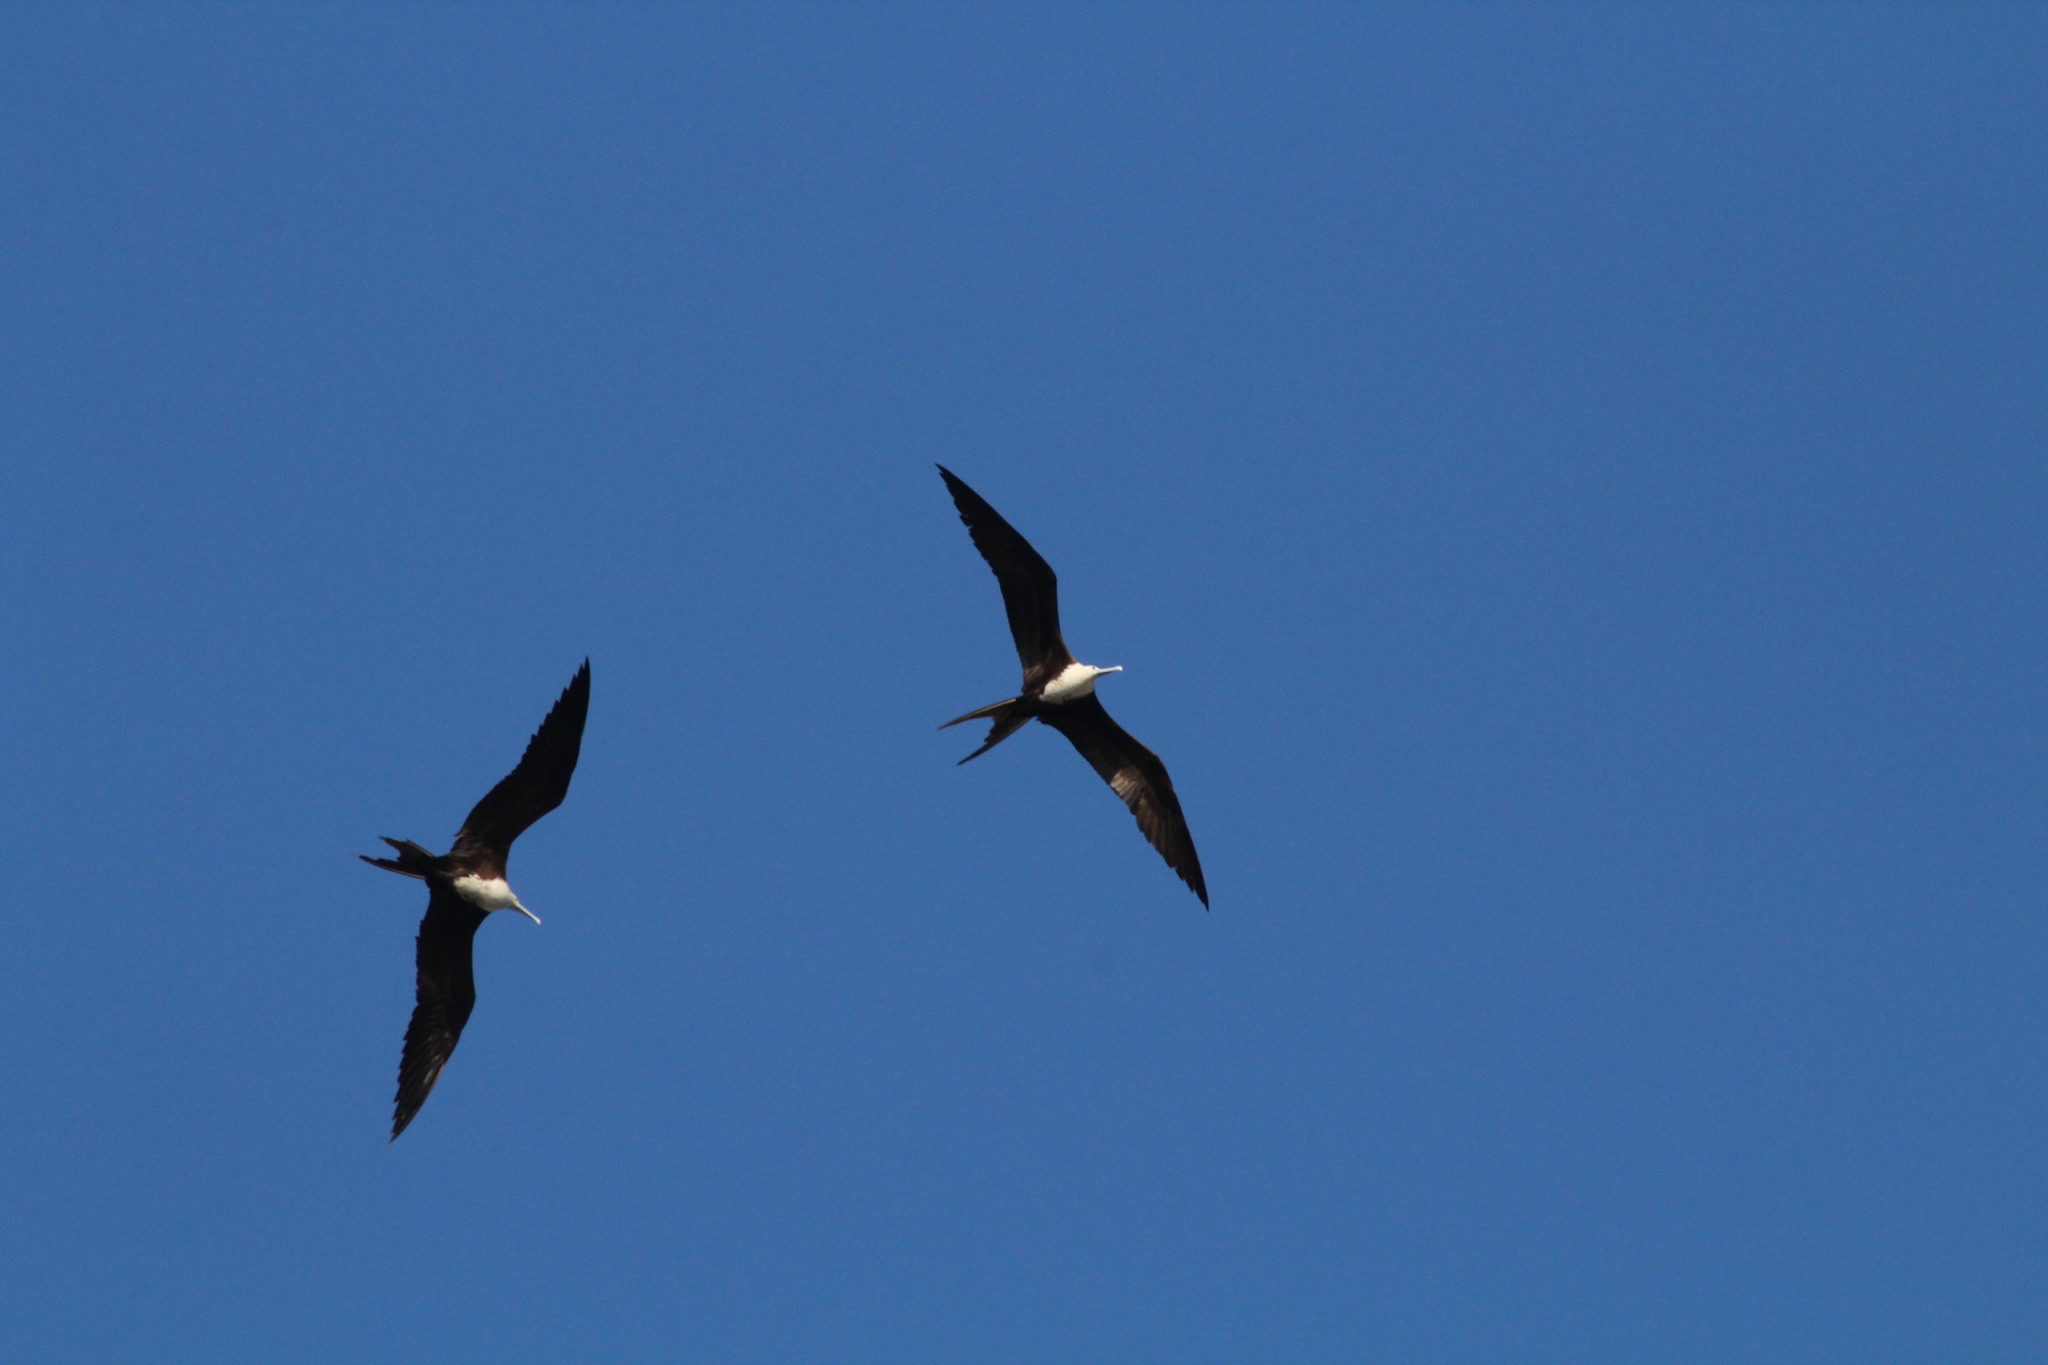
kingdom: Animalia
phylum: Chordata
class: Aves
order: Suliformes
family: Fregatidae
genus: Fregata
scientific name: Fregata magnificens
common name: Magnificent frigatebird
